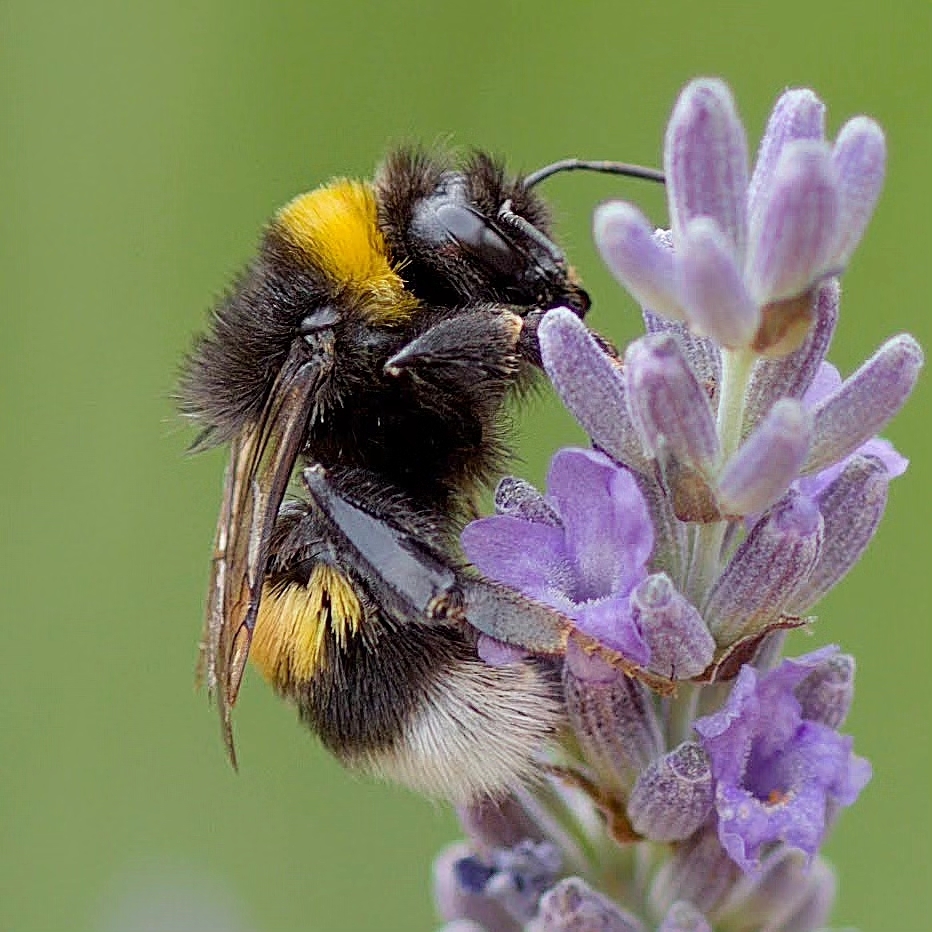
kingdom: Animalia
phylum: Arthropoda
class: Insecta
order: Hymenoptera
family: Apidae
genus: Bombus
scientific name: Bombus terrestris
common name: Buff-tailed bumblebee
